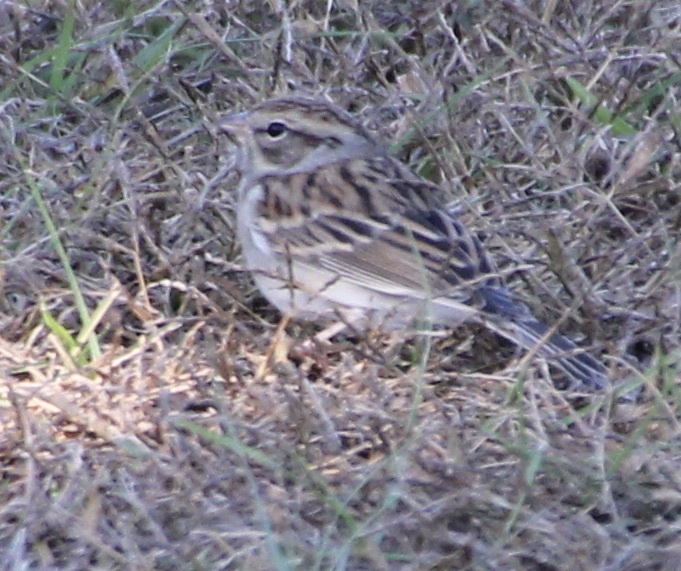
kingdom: Animalia
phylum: Chordata
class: Aves
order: Passeriformes
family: Passerellidae
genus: Spizella
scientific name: Spizella passerina
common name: Chipping sparrow
